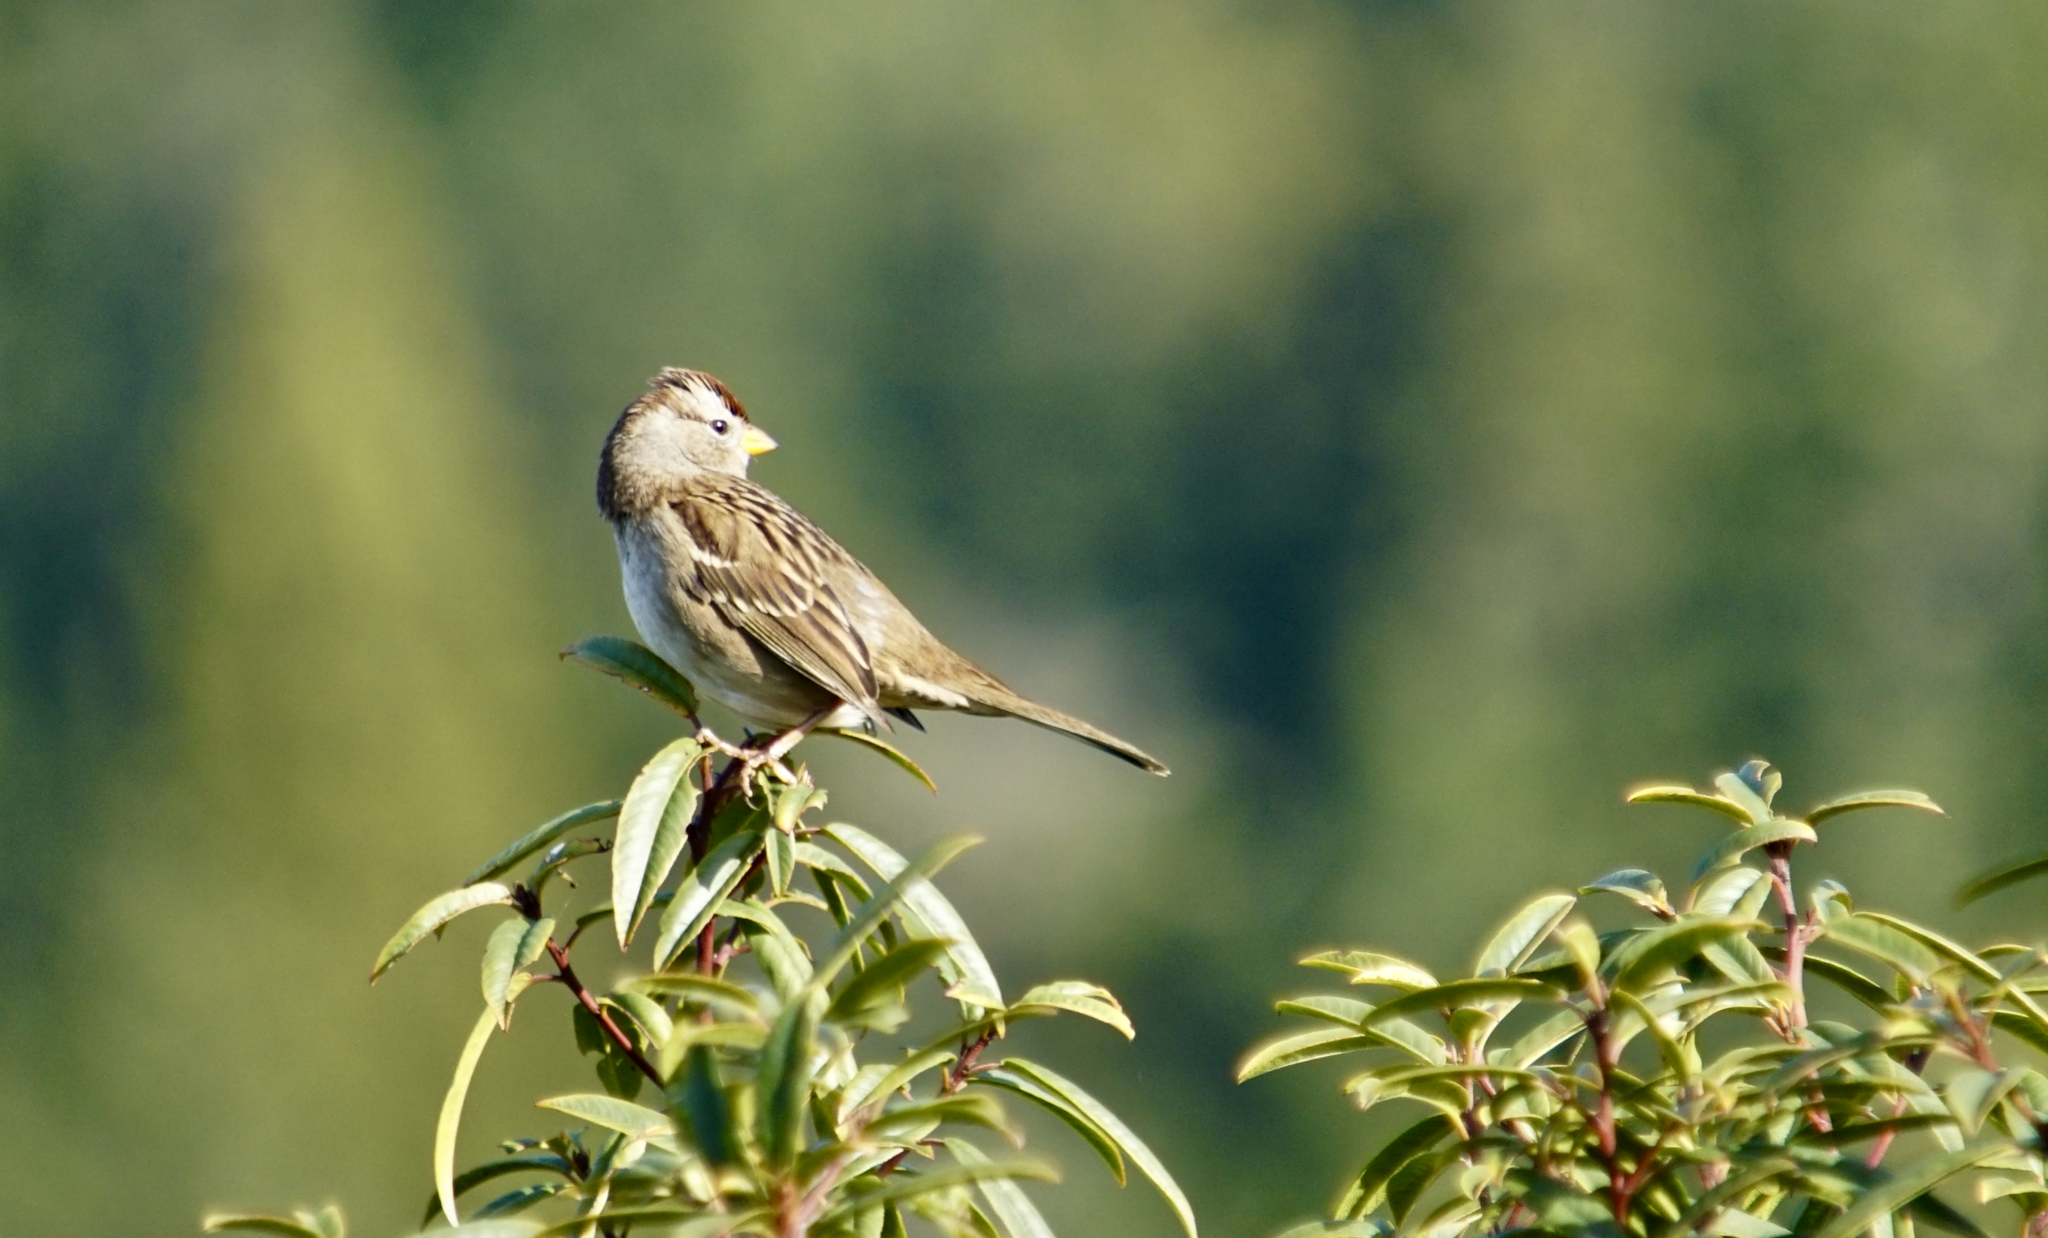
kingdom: Animalia
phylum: Chordata
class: Aves
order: Passeriformes
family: Passerellidae
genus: Zonotrichia
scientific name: Zonotrichia leucophrys
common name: White-crowned sparrow
